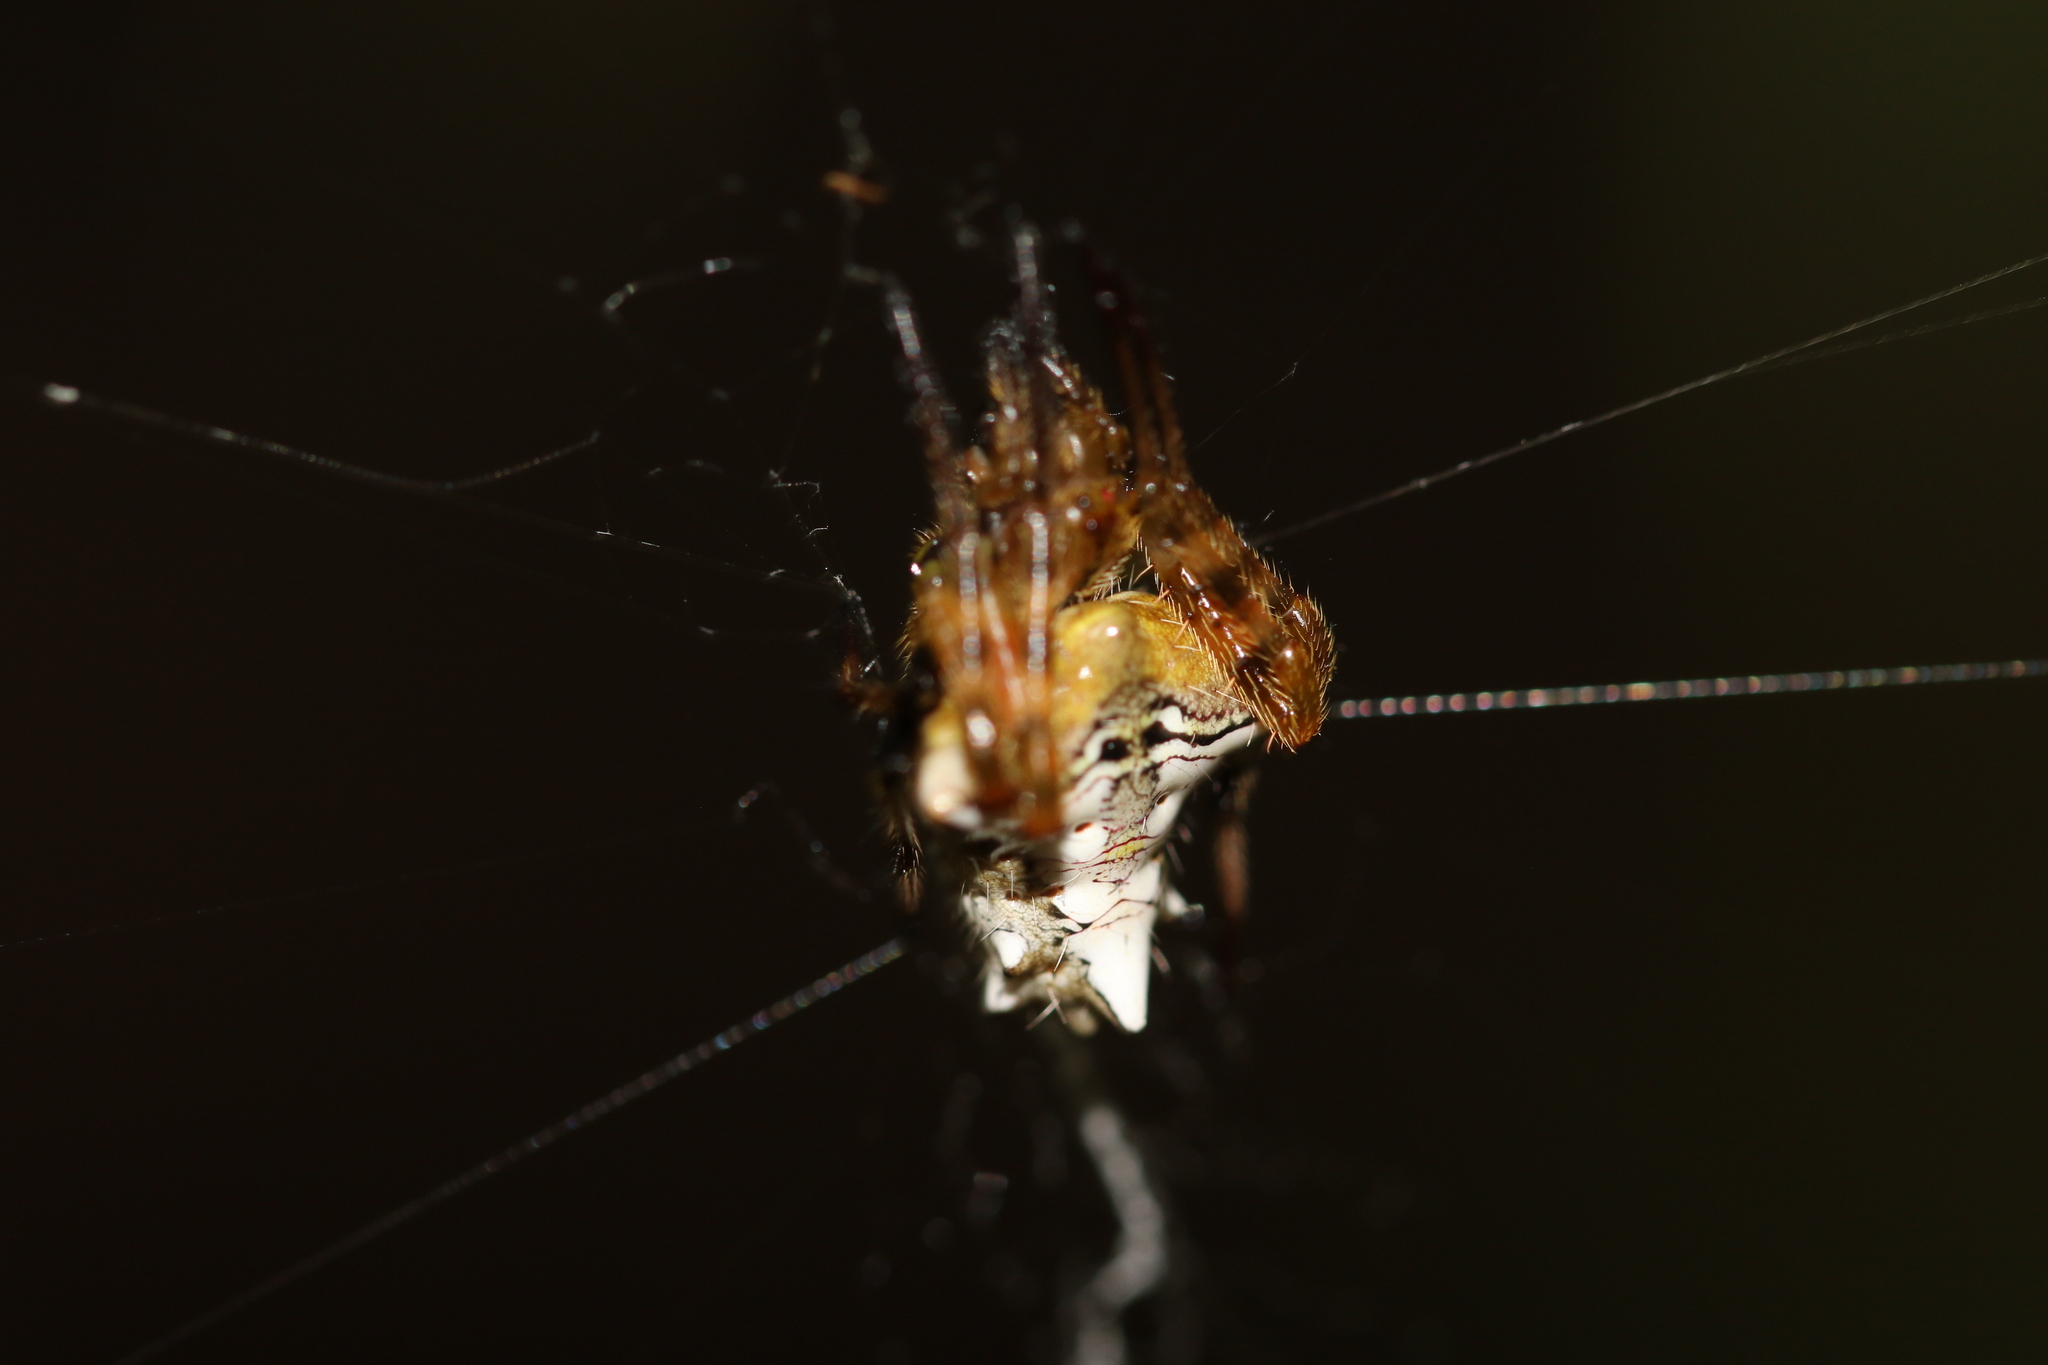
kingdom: Animalia
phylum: Arthropoda
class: Arachnida
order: Araneae
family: Araneidae
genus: Verrucosa
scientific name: Verrucosa scapofracta
